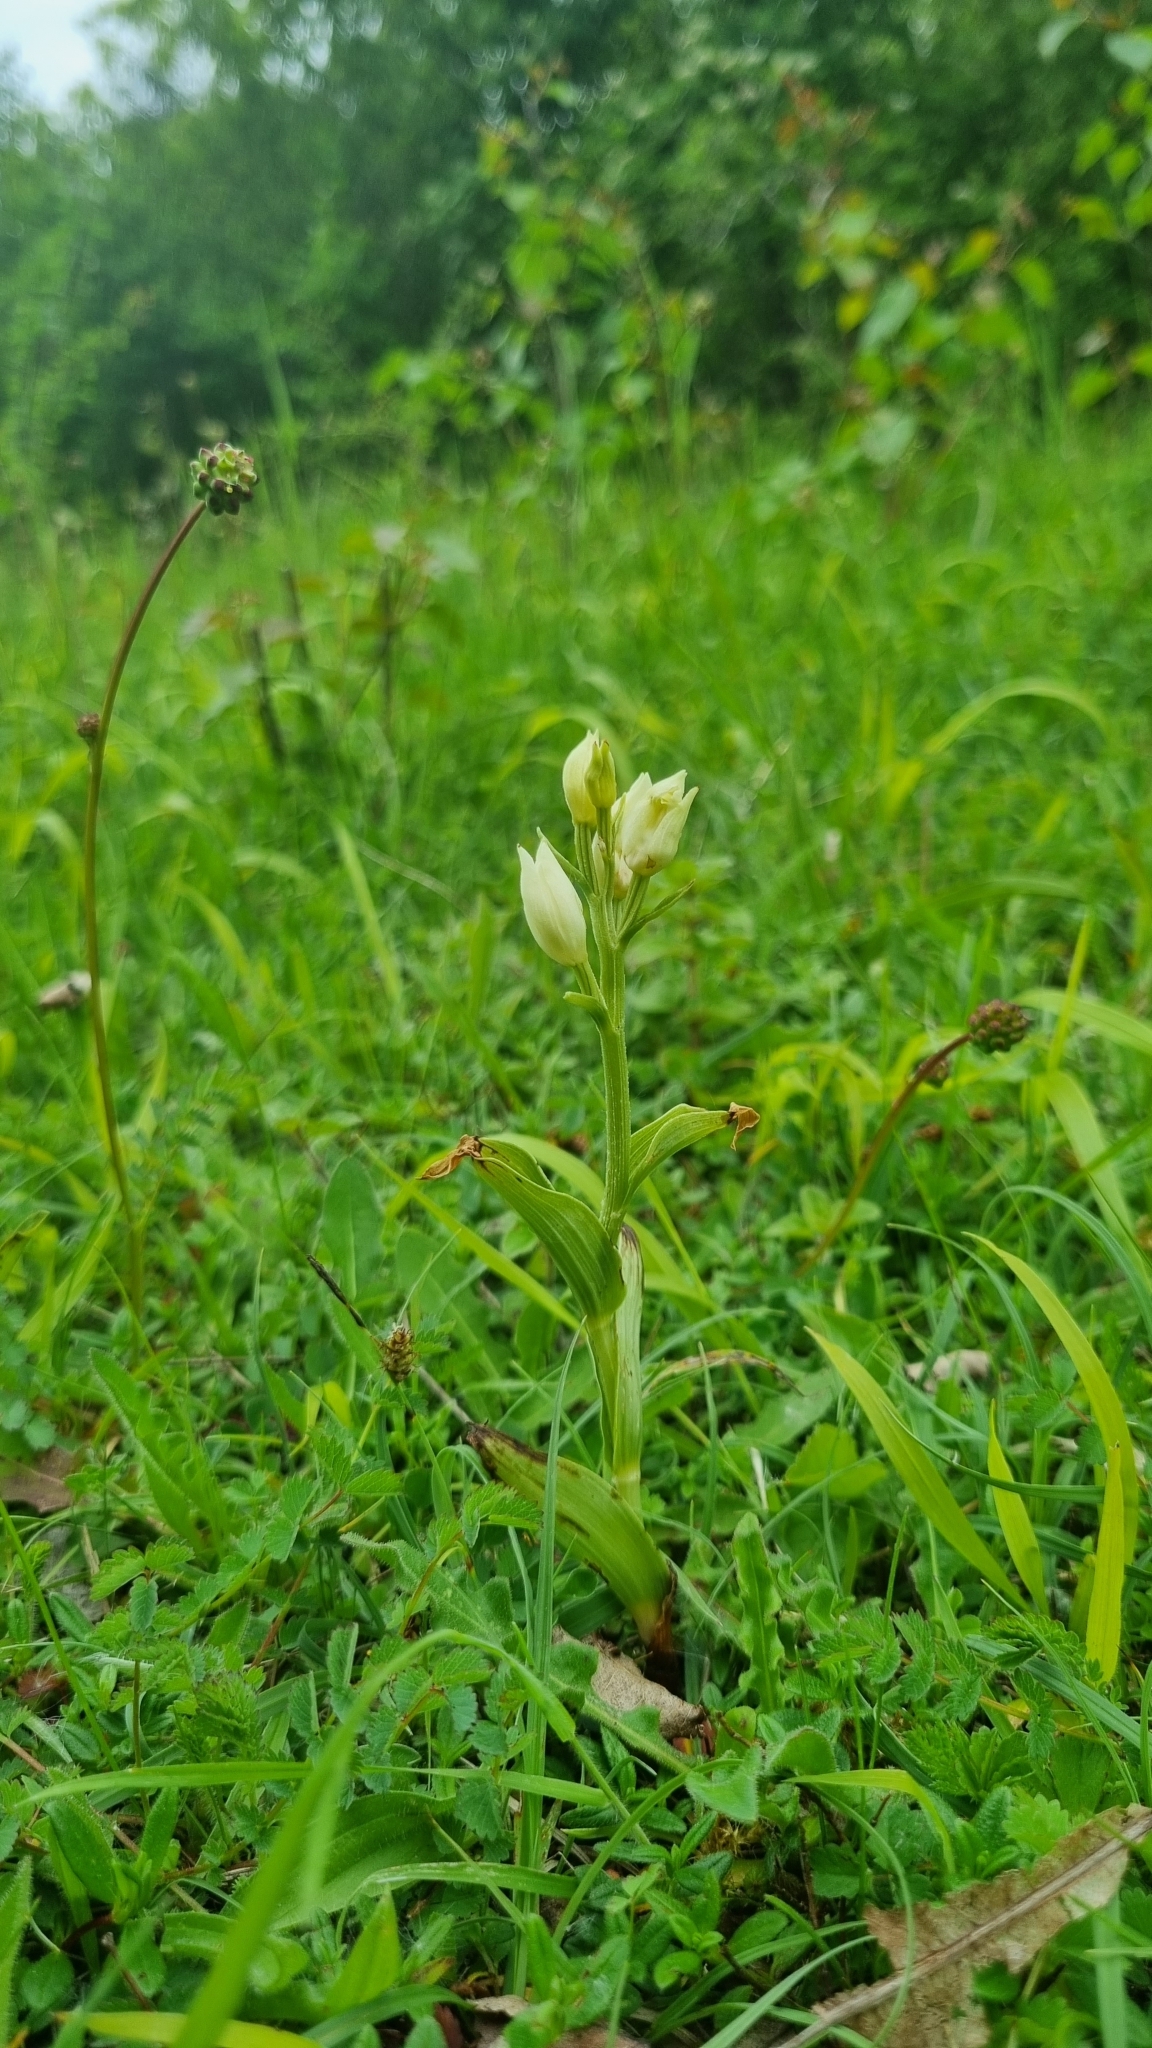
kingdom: Plantae
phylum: Tracheophyta
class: Liliopsida
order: Asparagales
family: Orchidaceae
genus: Cephalanthera
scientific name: Cephalanthera damasonium
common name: White helleborine
